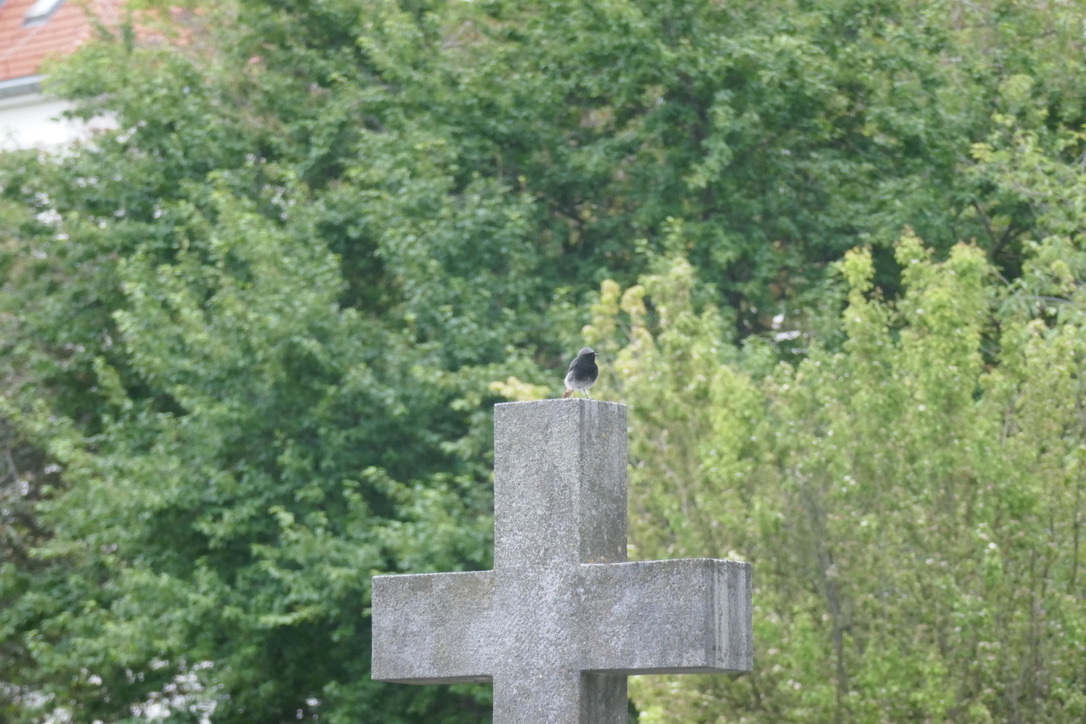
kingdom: Animalia
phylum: Chordata
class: Aves
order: Passeriformes
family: Muscicapidae
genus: Phoenicurus
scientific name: Phoenicurus ochruros
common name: Black redstart
